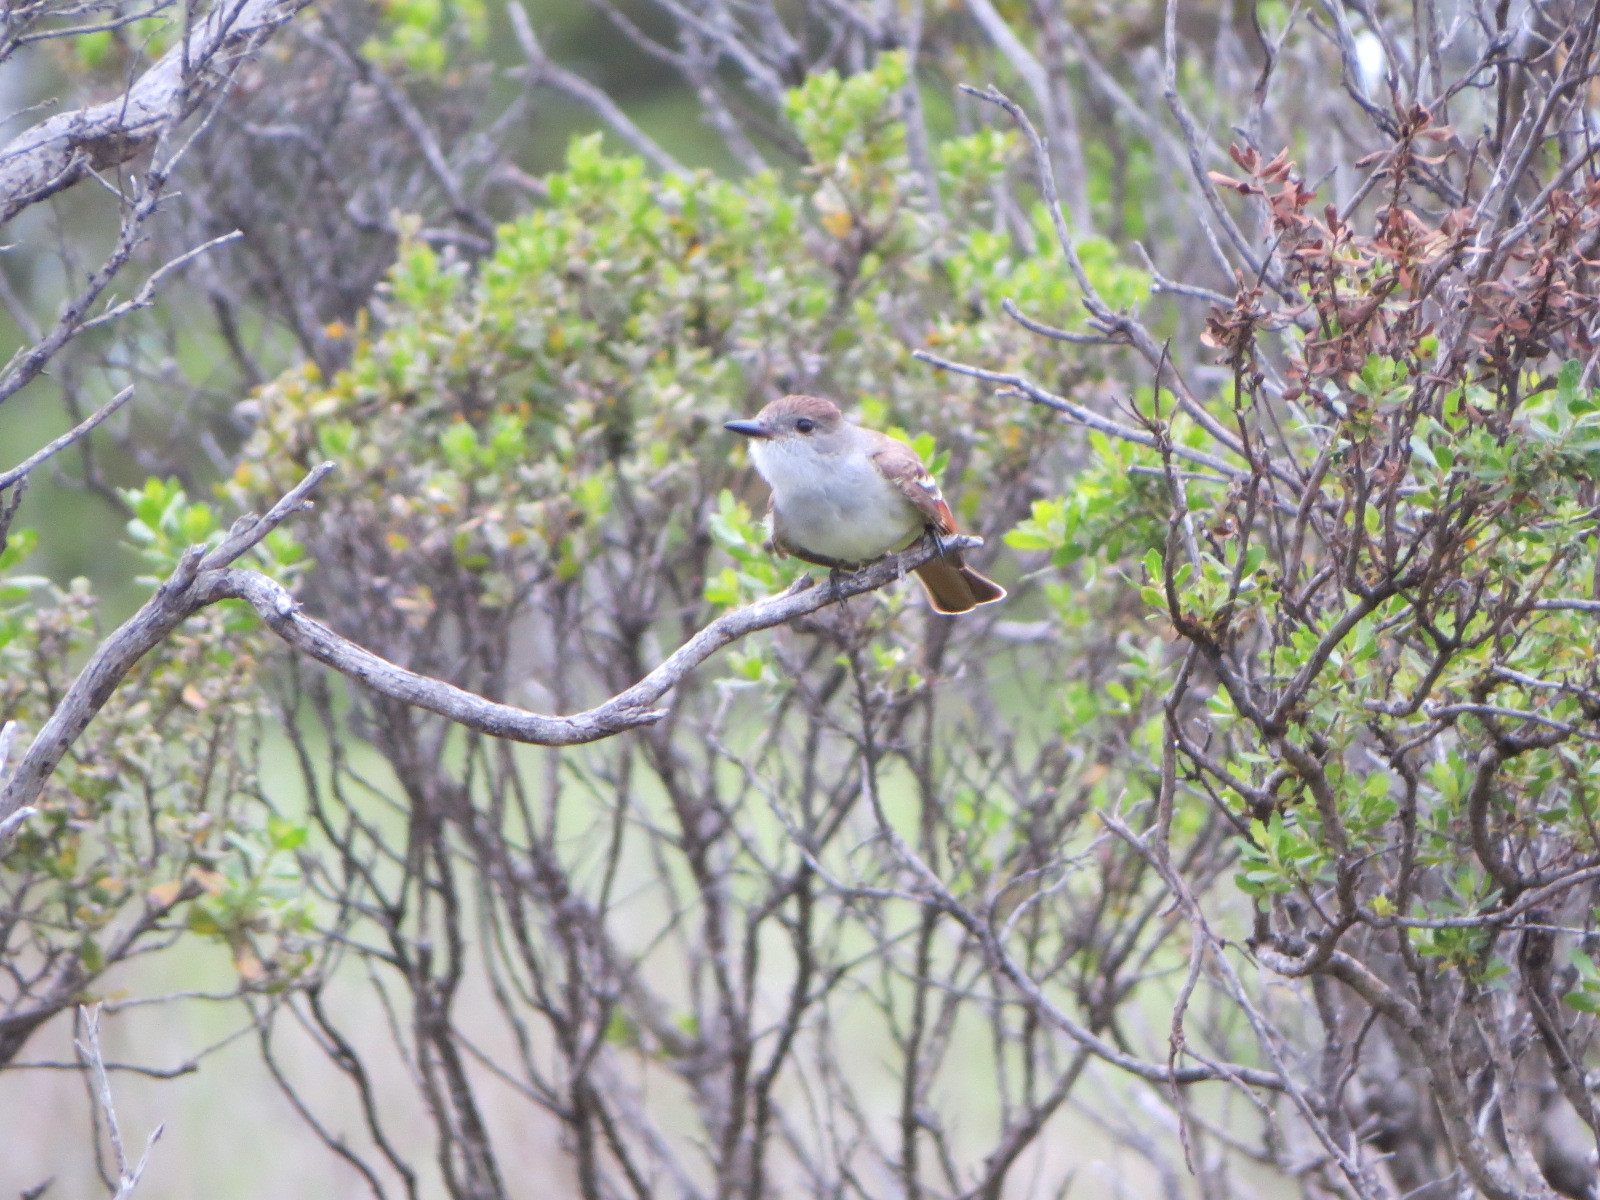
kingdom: Animalia
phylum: Chordata
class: Aves
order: Passeriformes
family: Tyrannidae
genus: Myiarchus
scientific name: Myiarchus cinerascens
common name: Ash-throated flycatcher
